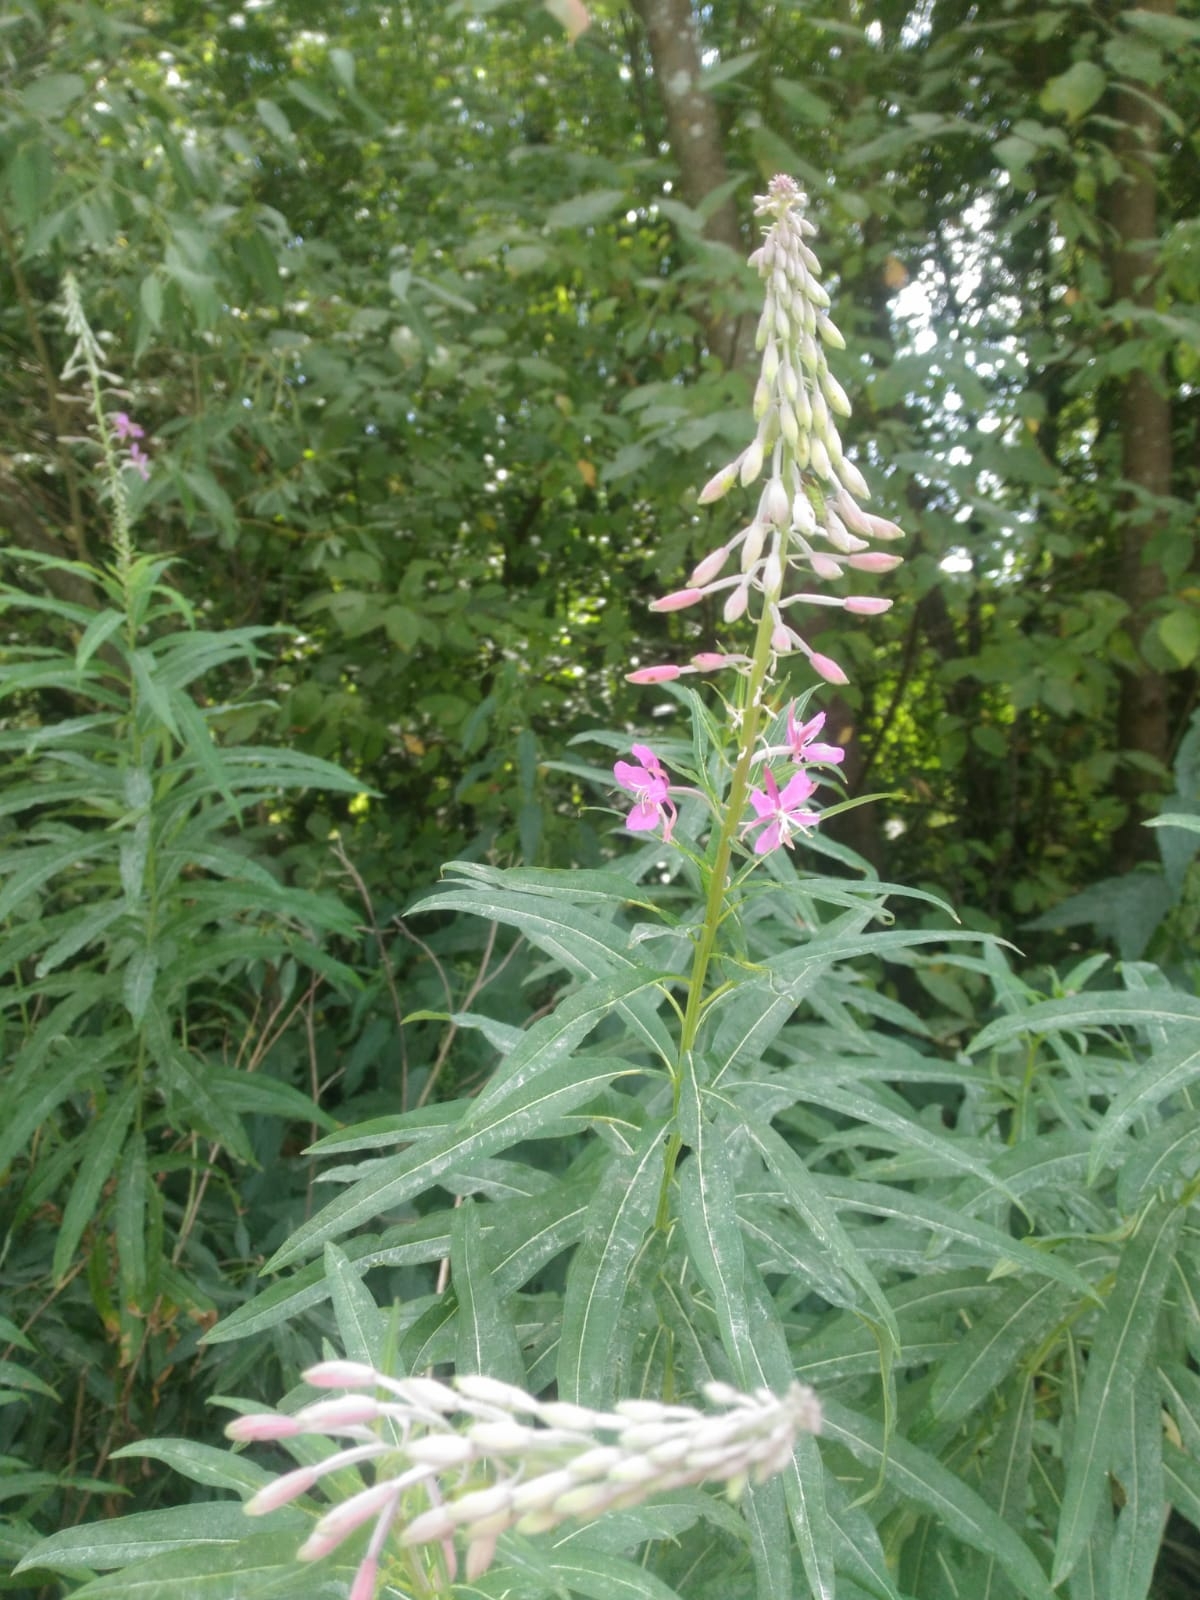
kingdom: Plantae
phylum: Tracheophyta
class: Magnoliopsida
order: Myrtales
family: Onagraceae
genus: Chamaenerion
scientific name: Chamaenerion angustifolium
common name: Fireweed
